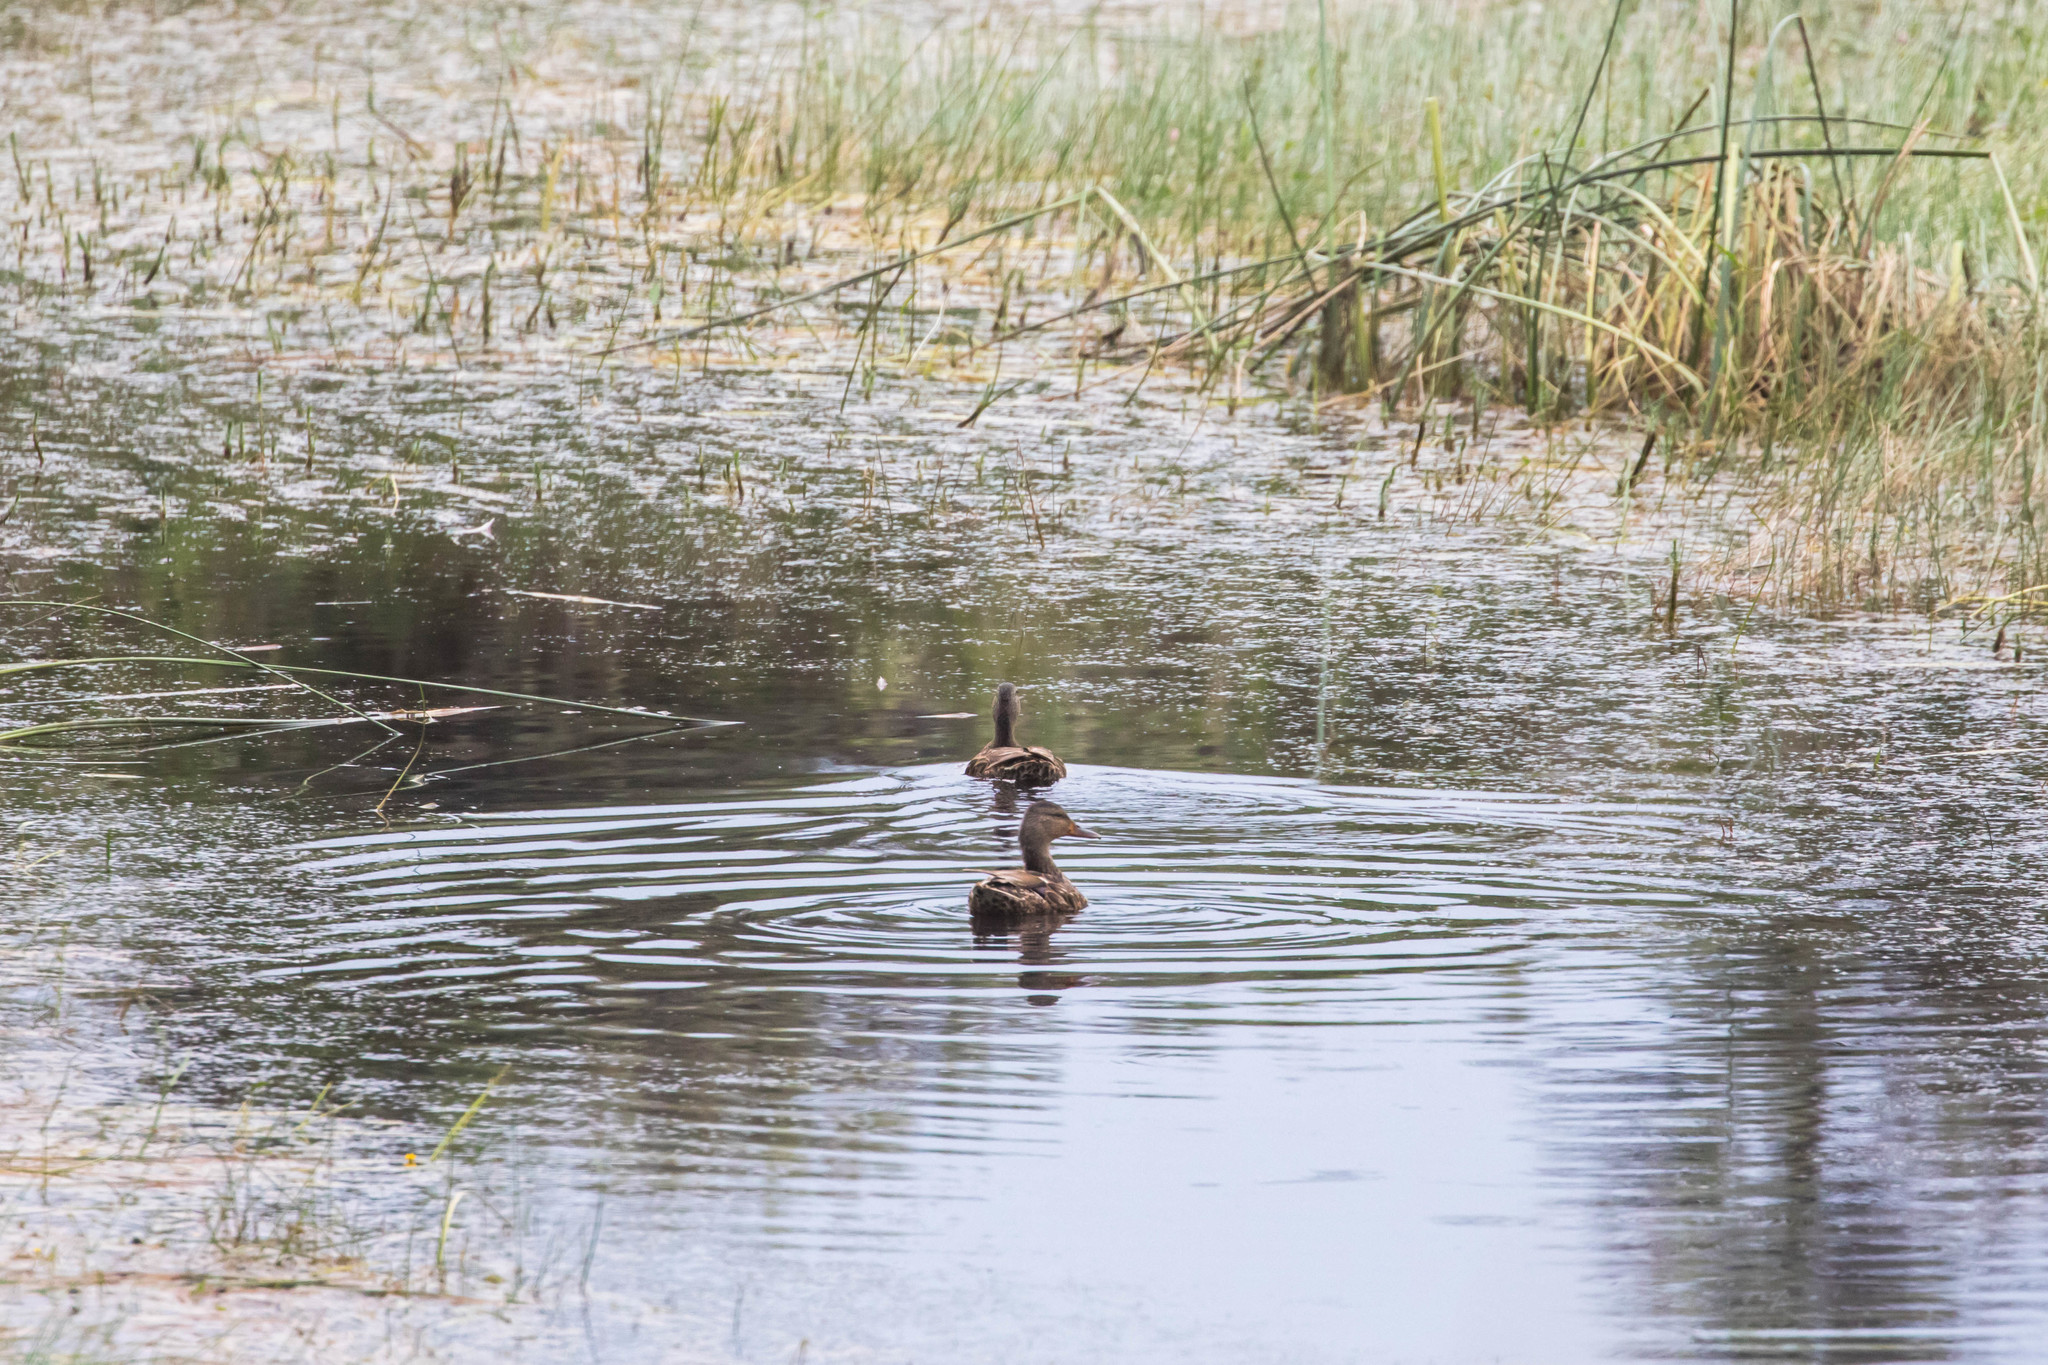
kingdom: Animalia
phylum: Chordata
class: Aves
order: Anseriformes
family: Anatidae
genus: Anas
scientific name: Anas platyrhynchos
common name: Mallard
